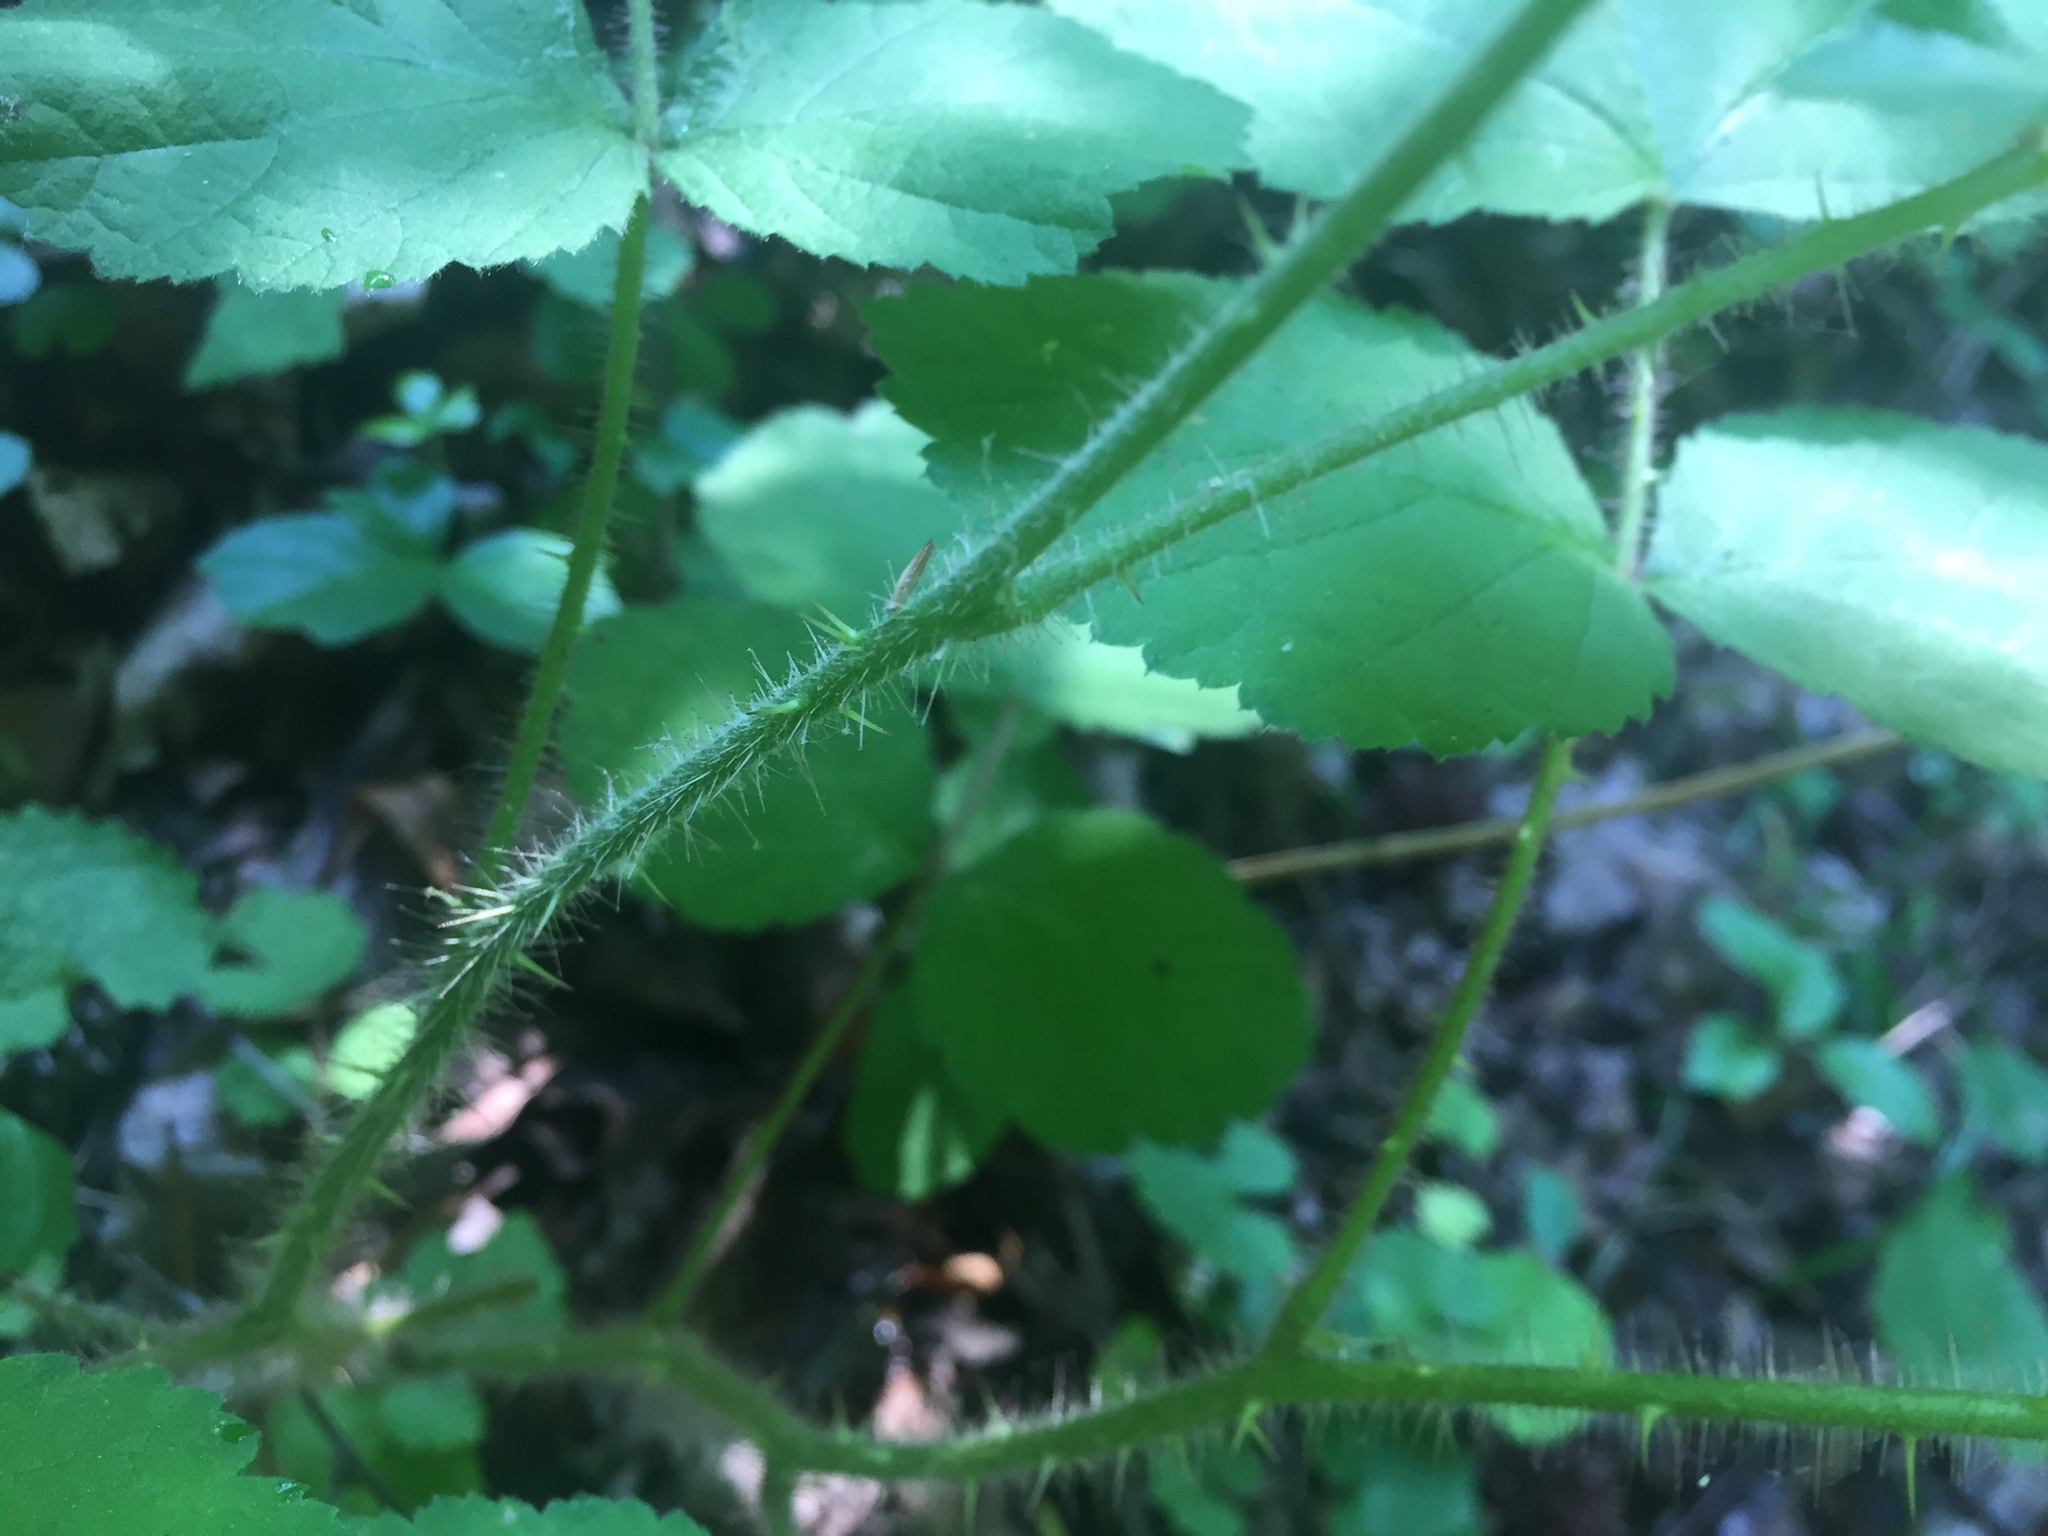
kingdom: Plantae
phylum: Tracheophyta
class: Magnoliopsida
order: Rosales
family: Rosaceae
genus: Rubus
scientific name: Rubus phoenicolasius
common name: Japanese wineberry
